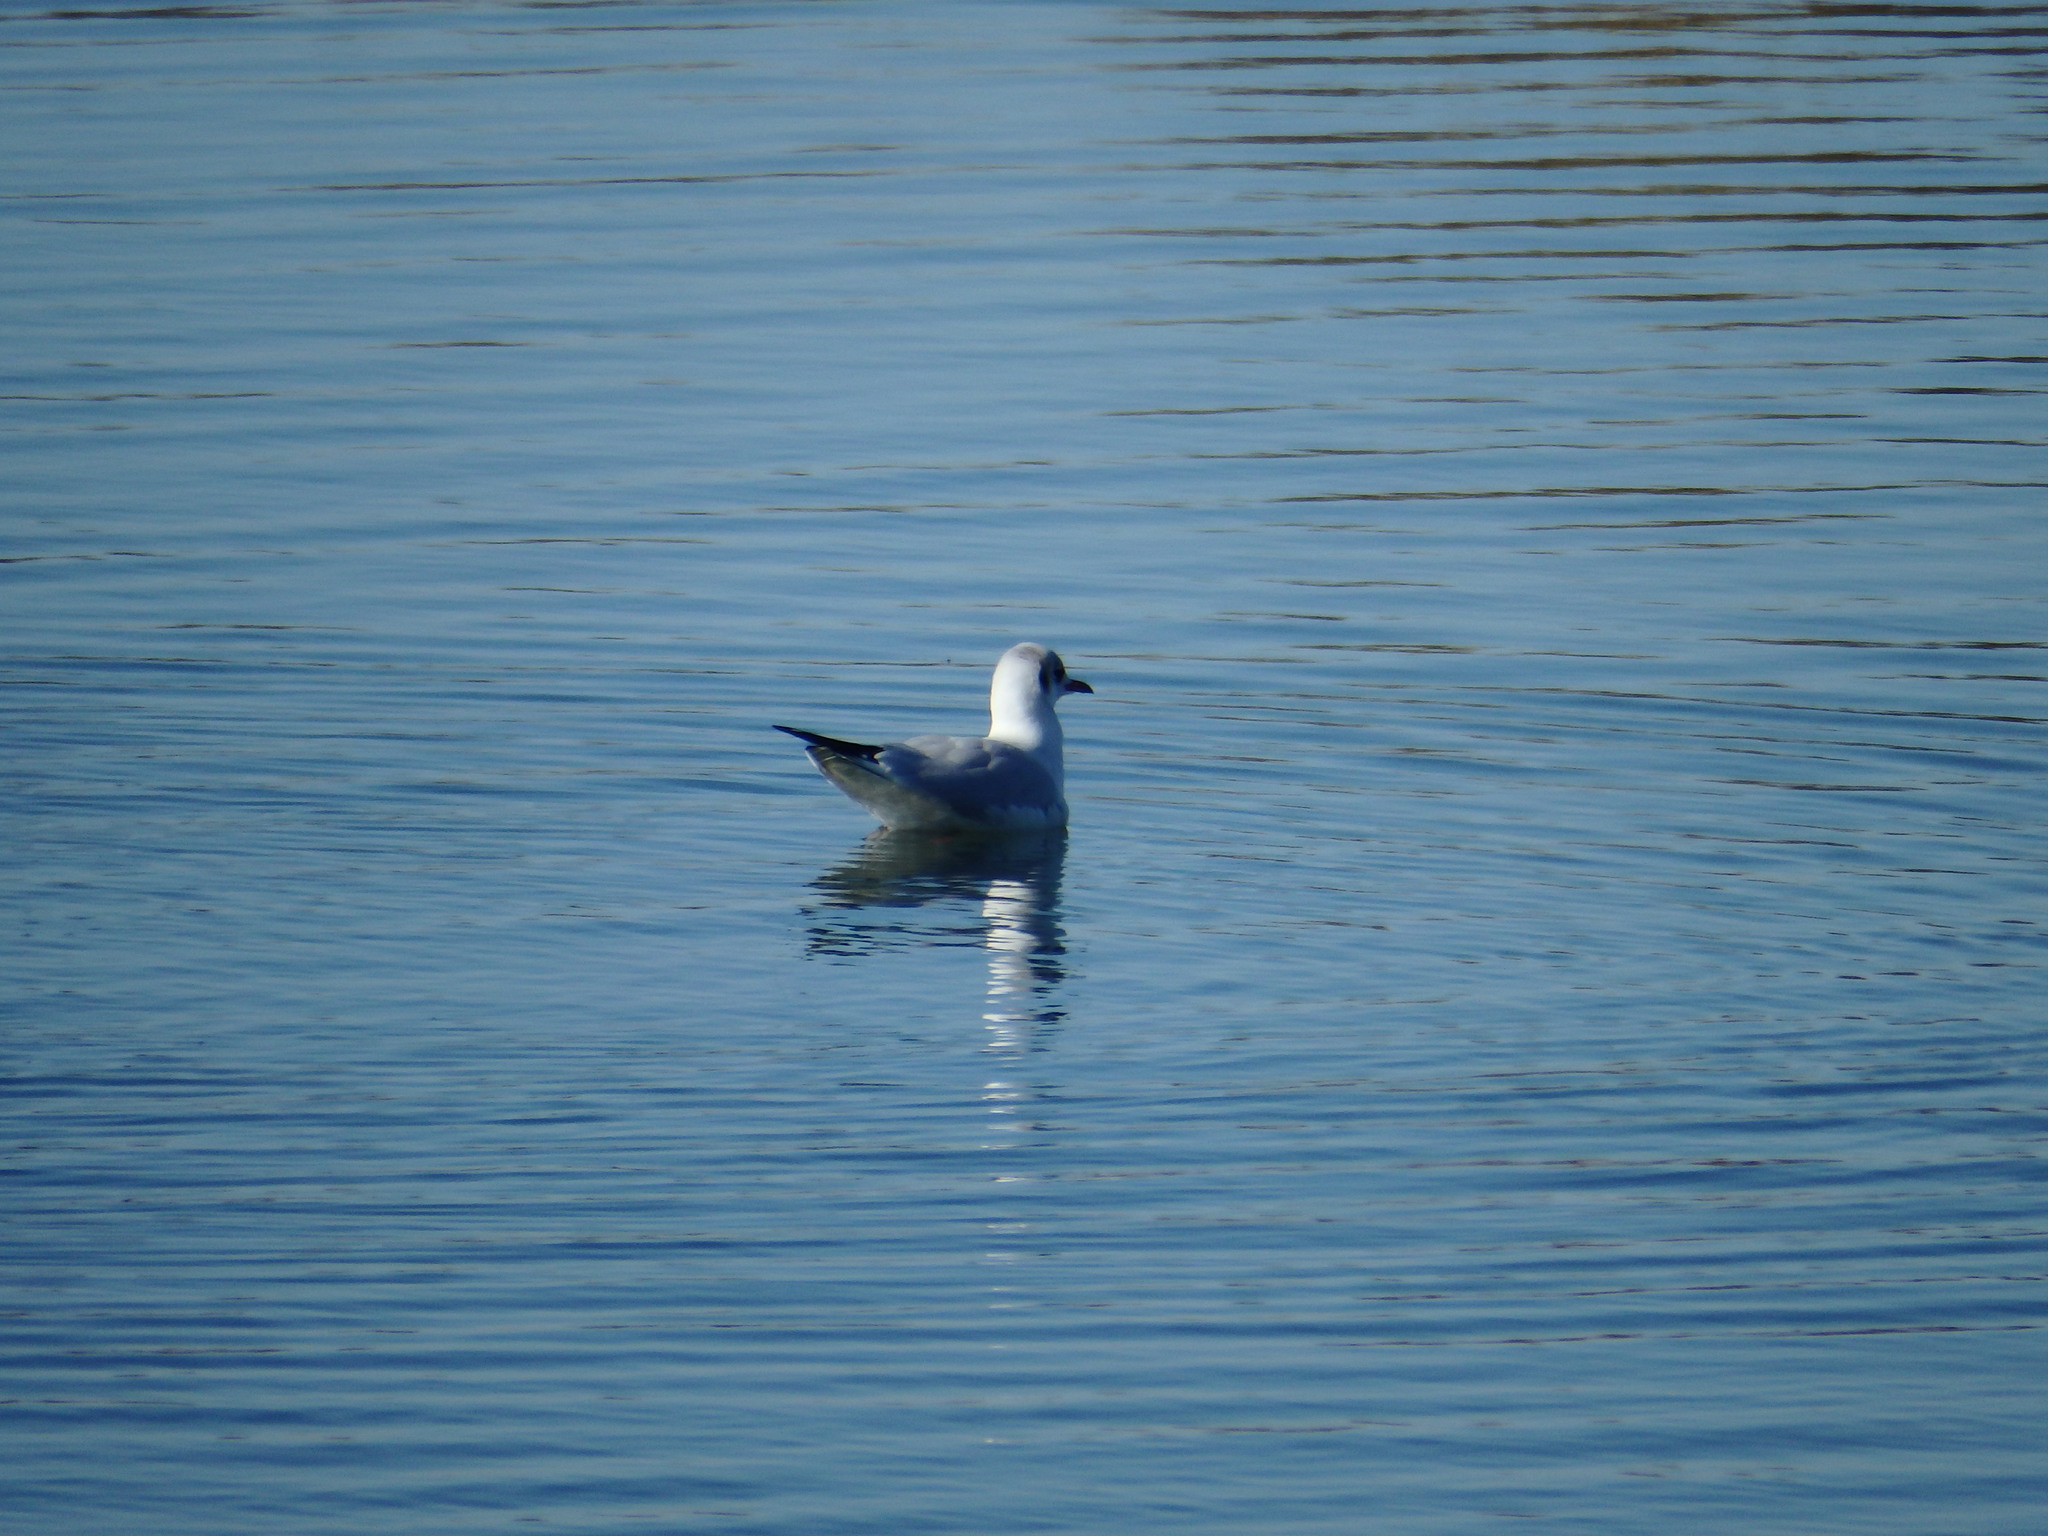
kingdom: Animalia
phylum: Chordata
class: Aves
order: Charadriiformes
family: Laridae
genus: Chroicocephalus
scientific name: Chroicocephalus ridibundus
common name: Black-headed gull
